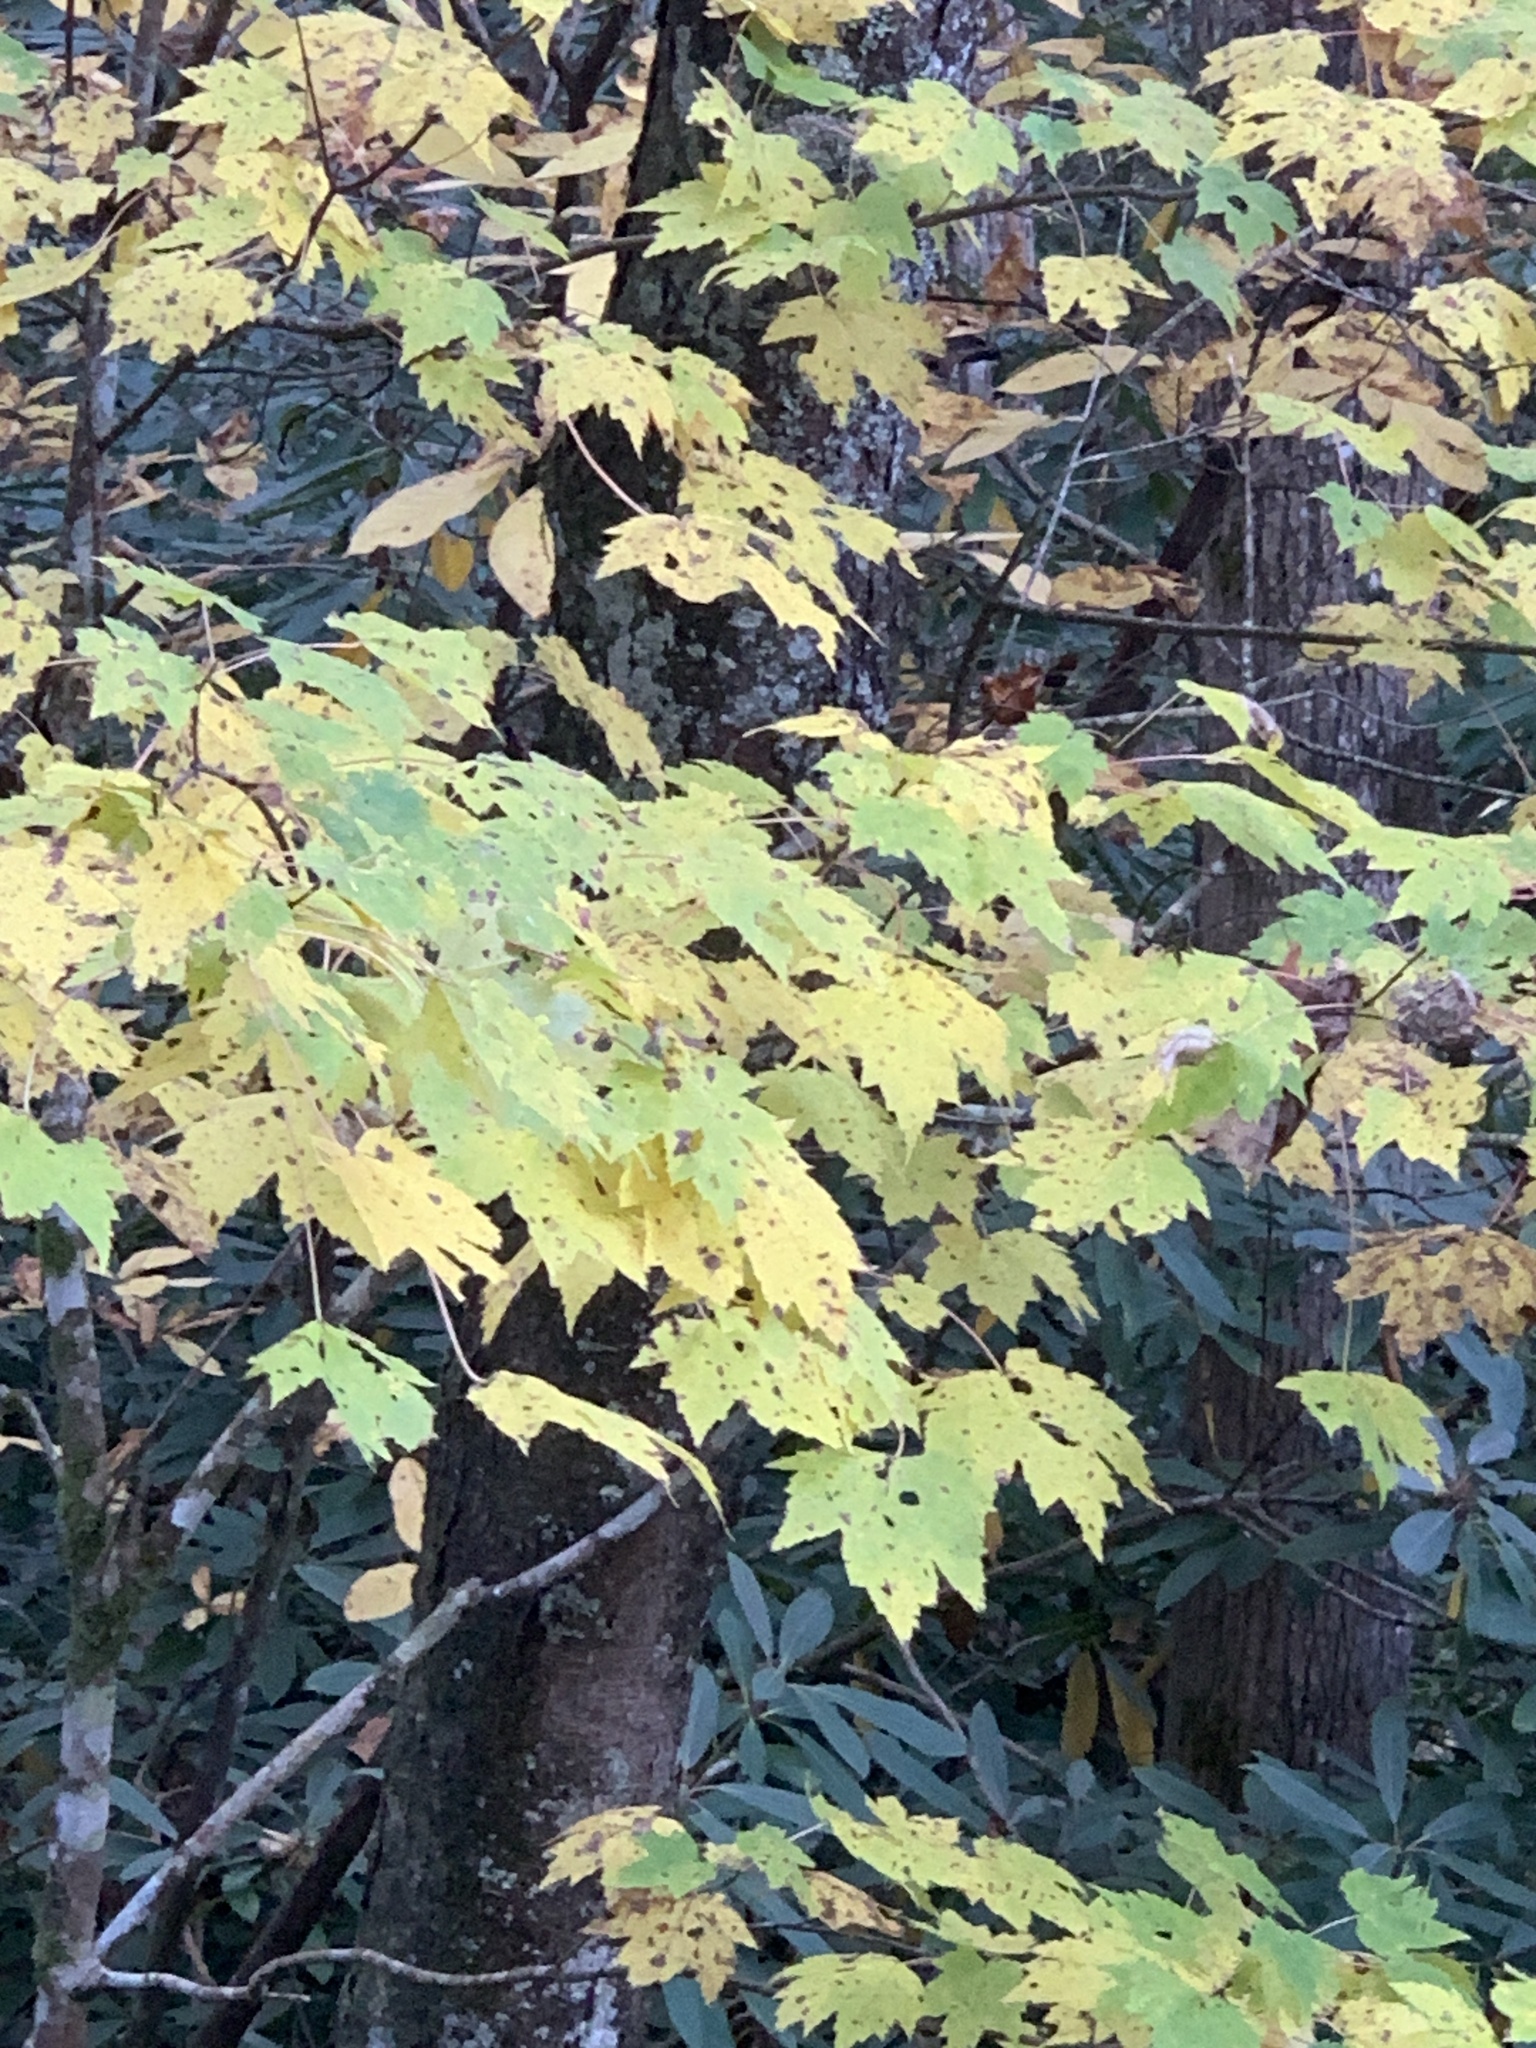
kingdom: Plantae
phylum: Tracheophyta
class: Magnoliopsida
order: Sapindales
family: Sapindaceae
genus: Acer
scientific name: Acer rubrum
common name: Red maple
